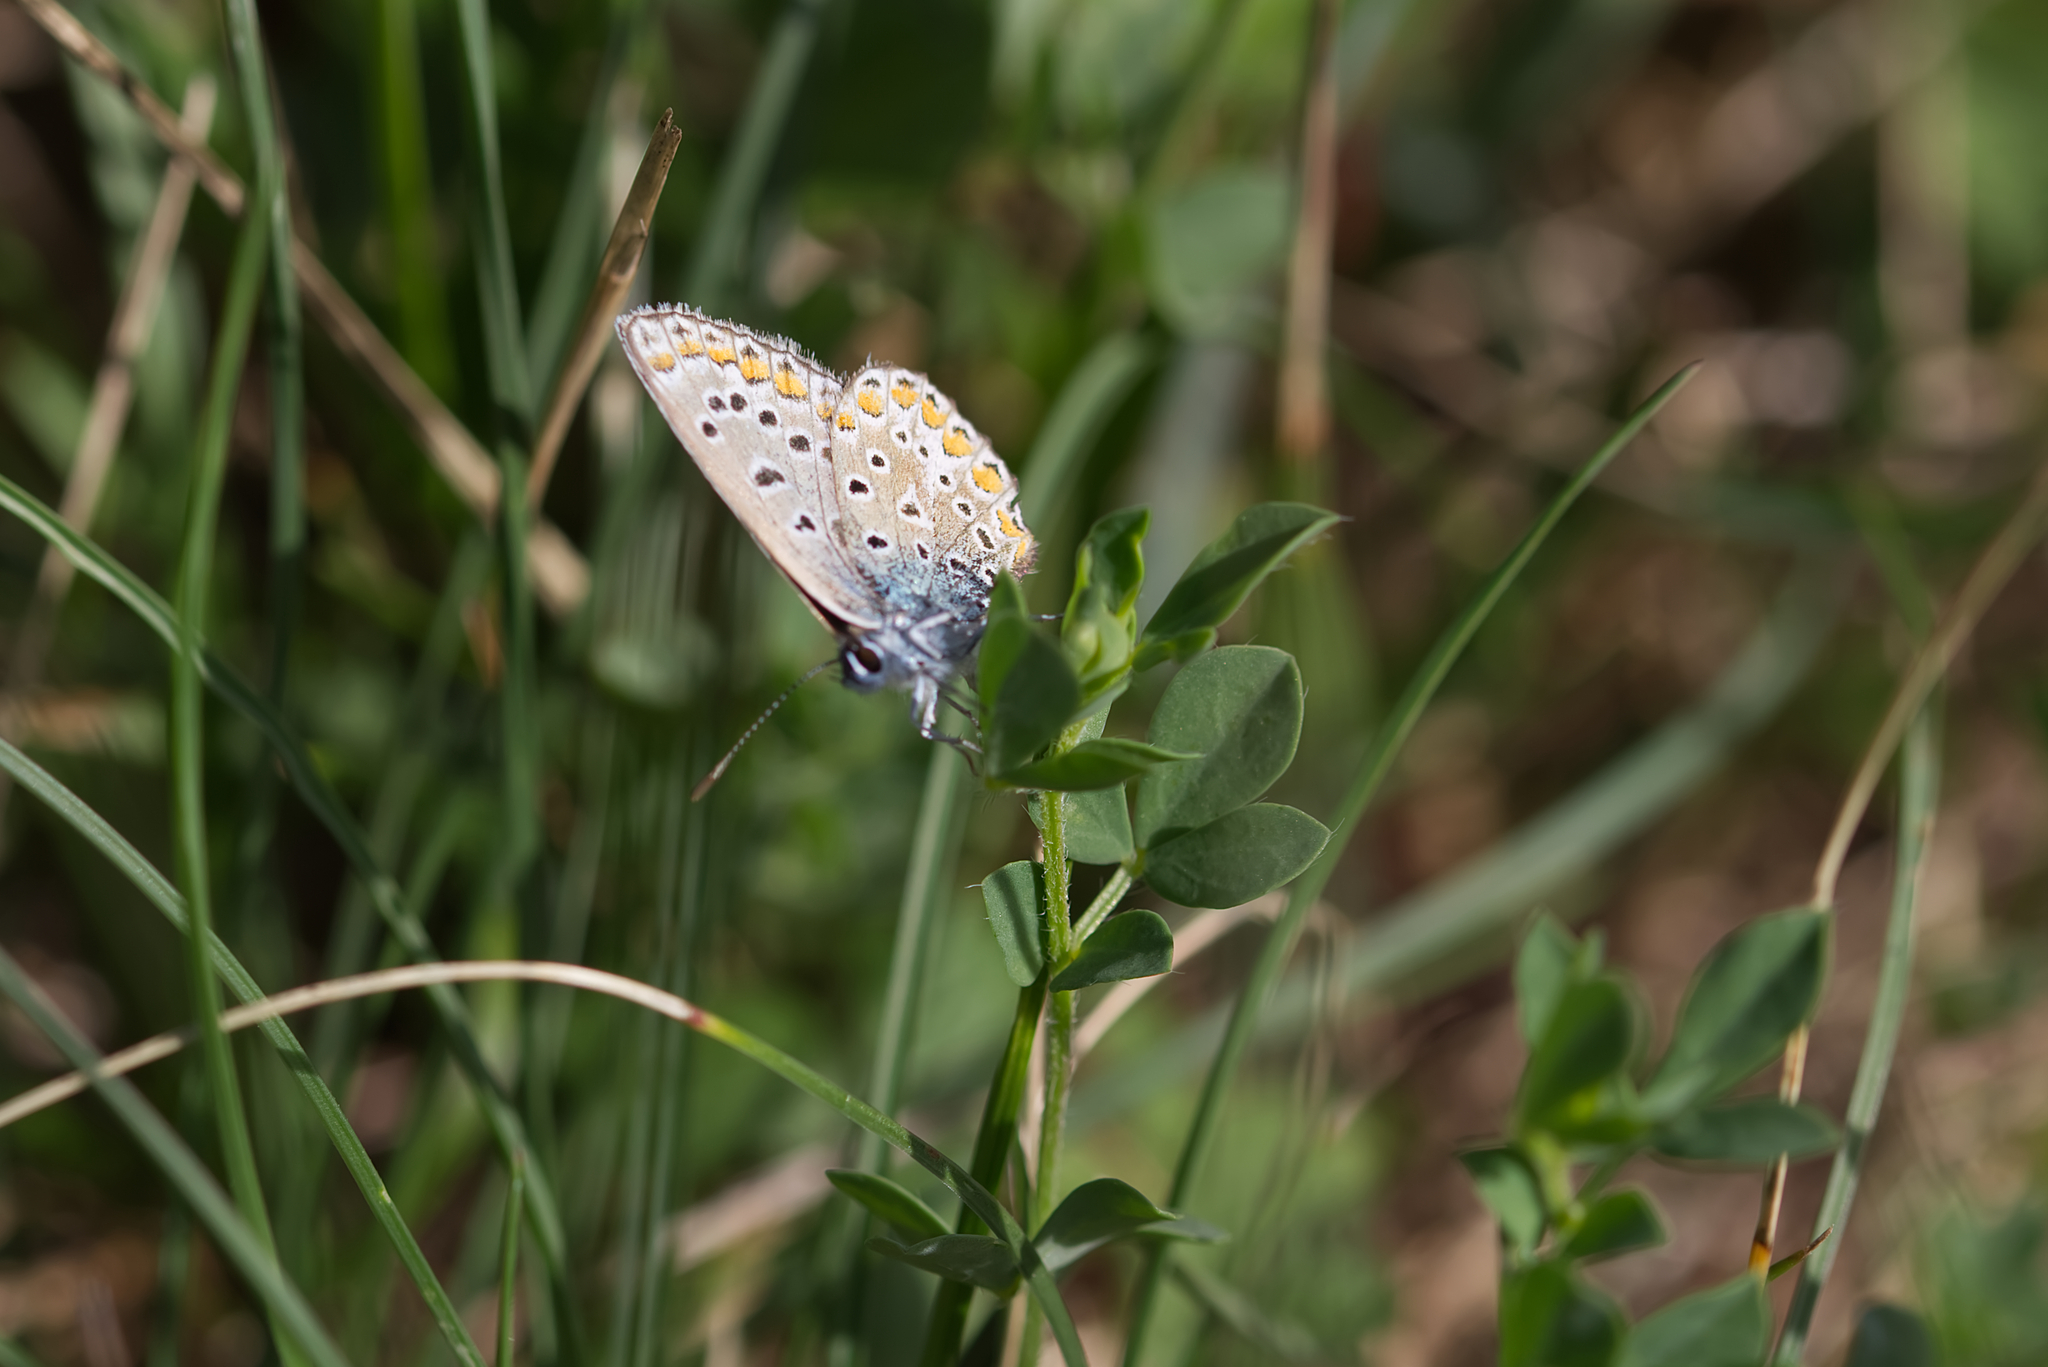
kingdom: Animalia
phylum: Arthropoda
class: Insecta
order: Lepidoptera
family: Lycaenidae
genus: Polyommatus
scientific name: Polyommatus icarus
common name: Common blue
